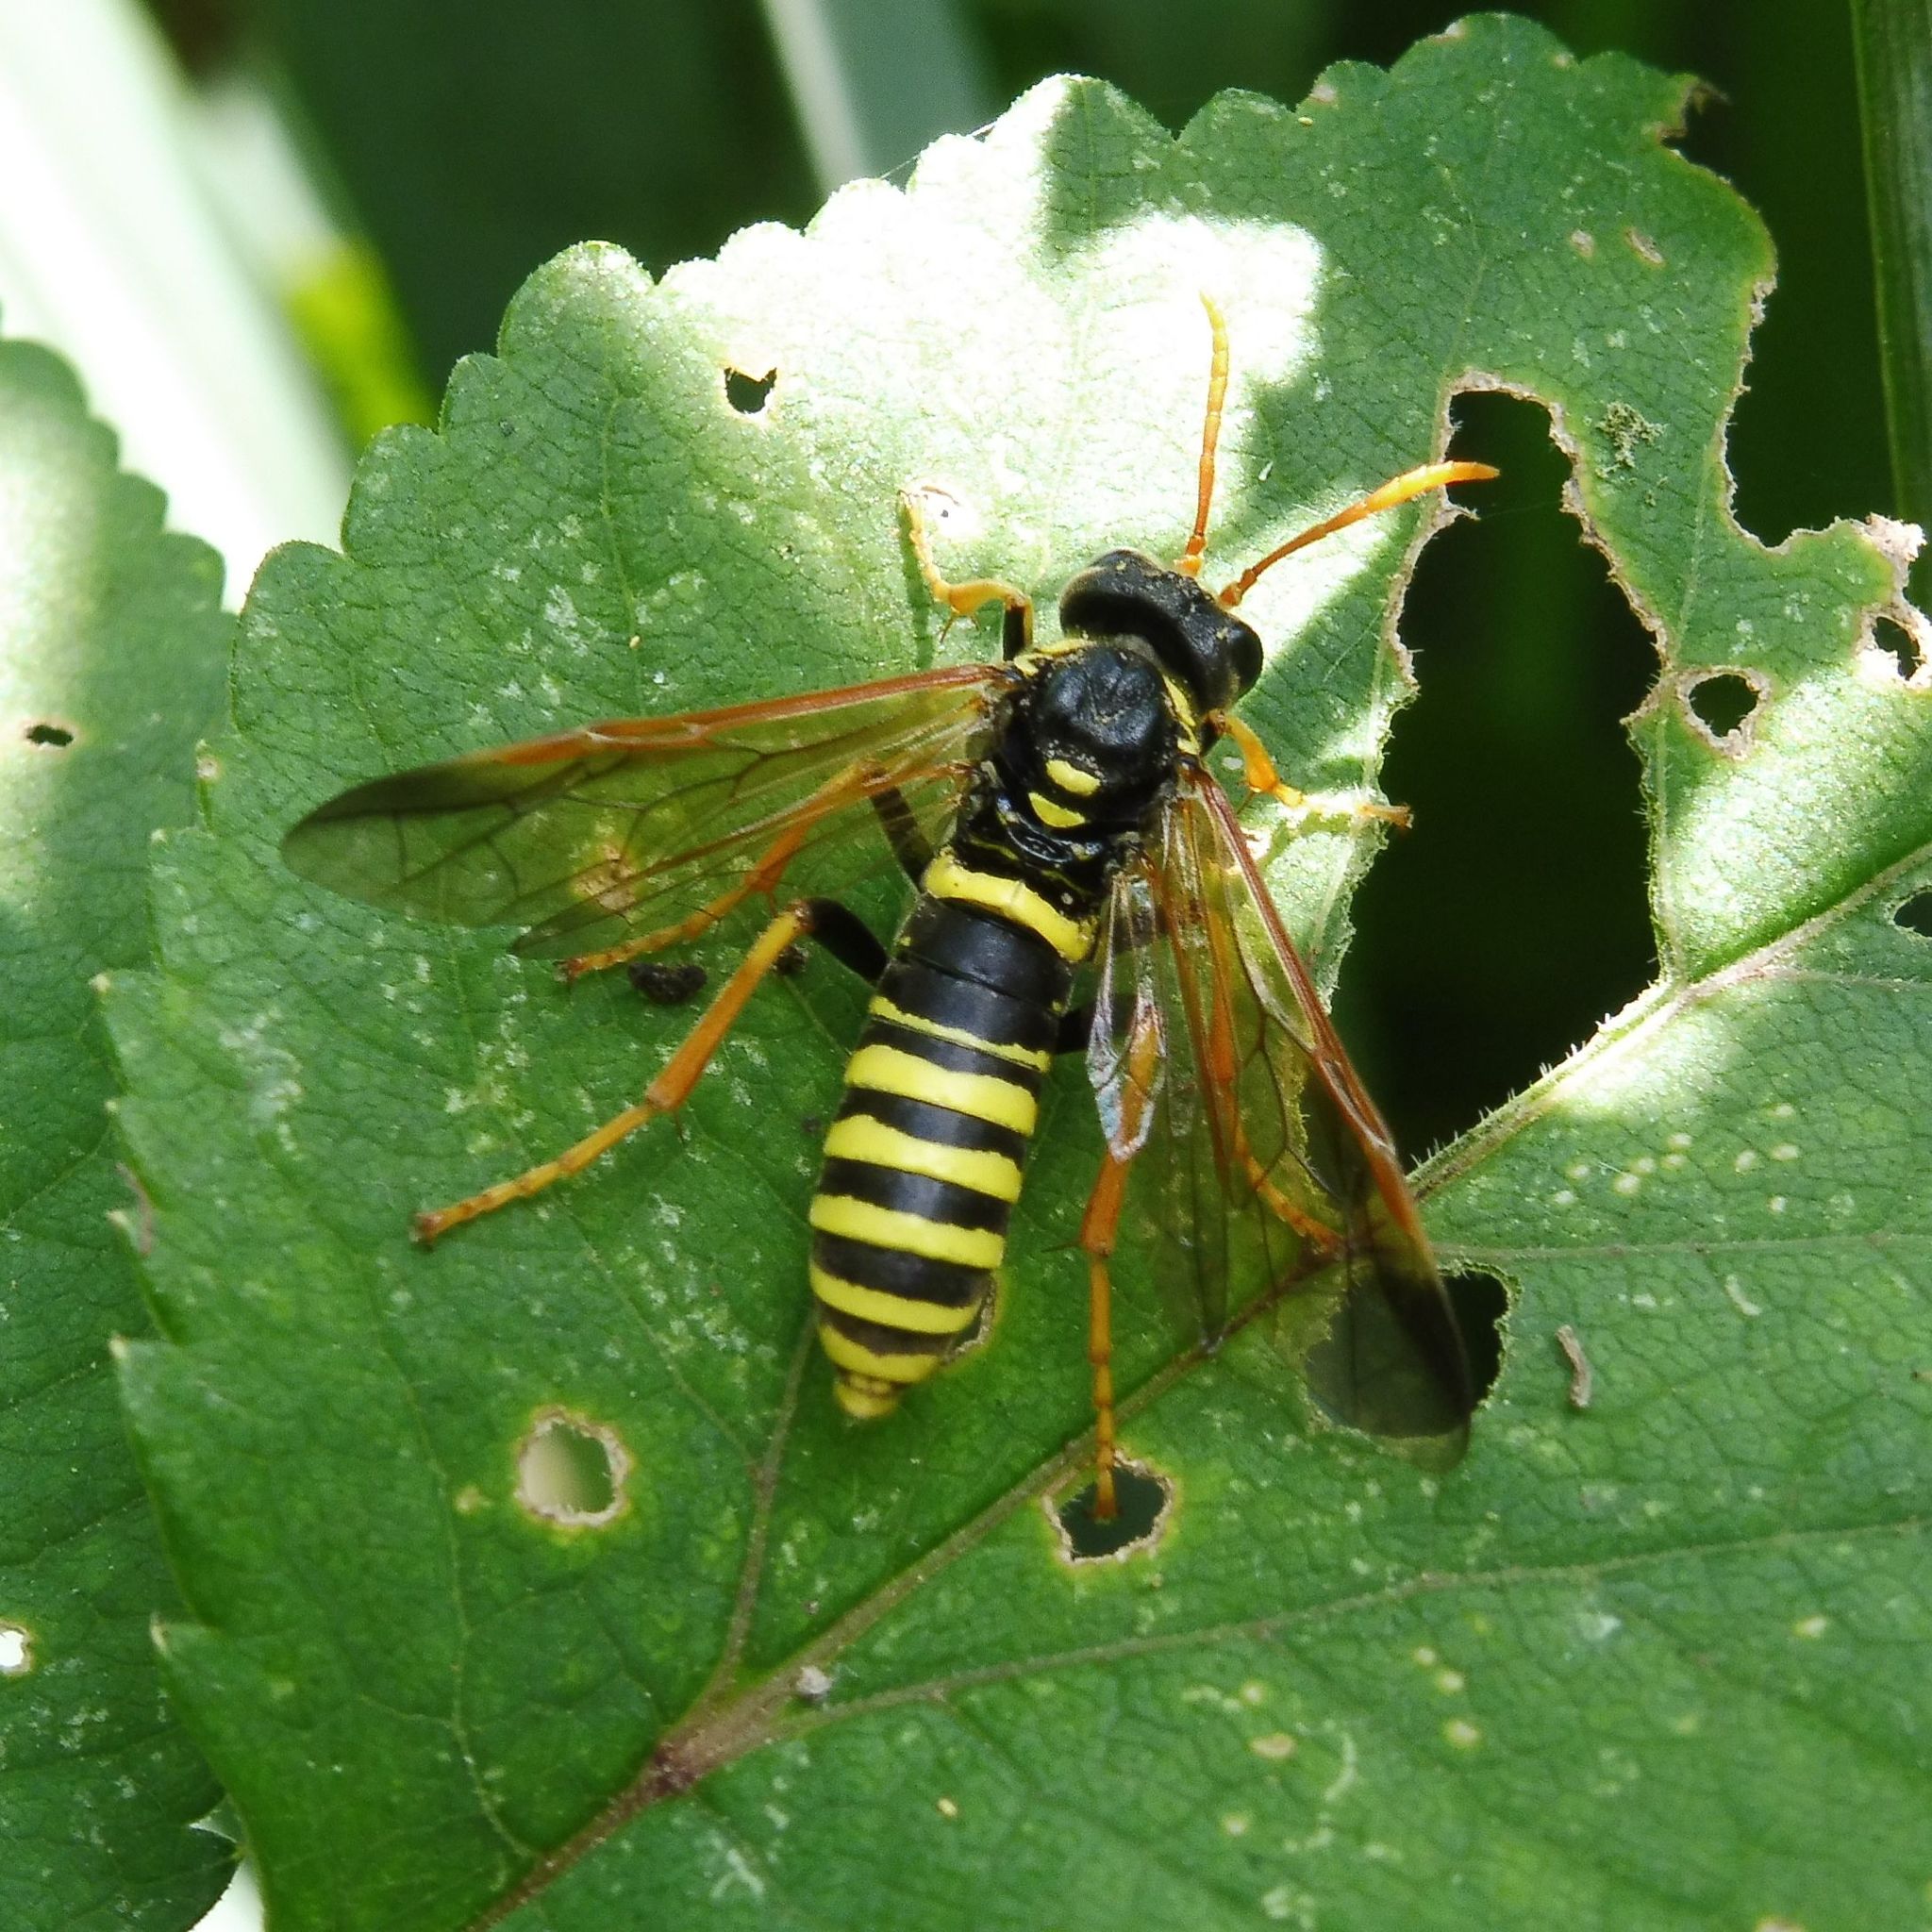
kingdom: Animalia
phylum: Arthropoda
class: Insecta
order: Hymenoptera
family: Tenthredinidae
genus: Tenthredo
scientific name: Tenthredo scrophulariae
